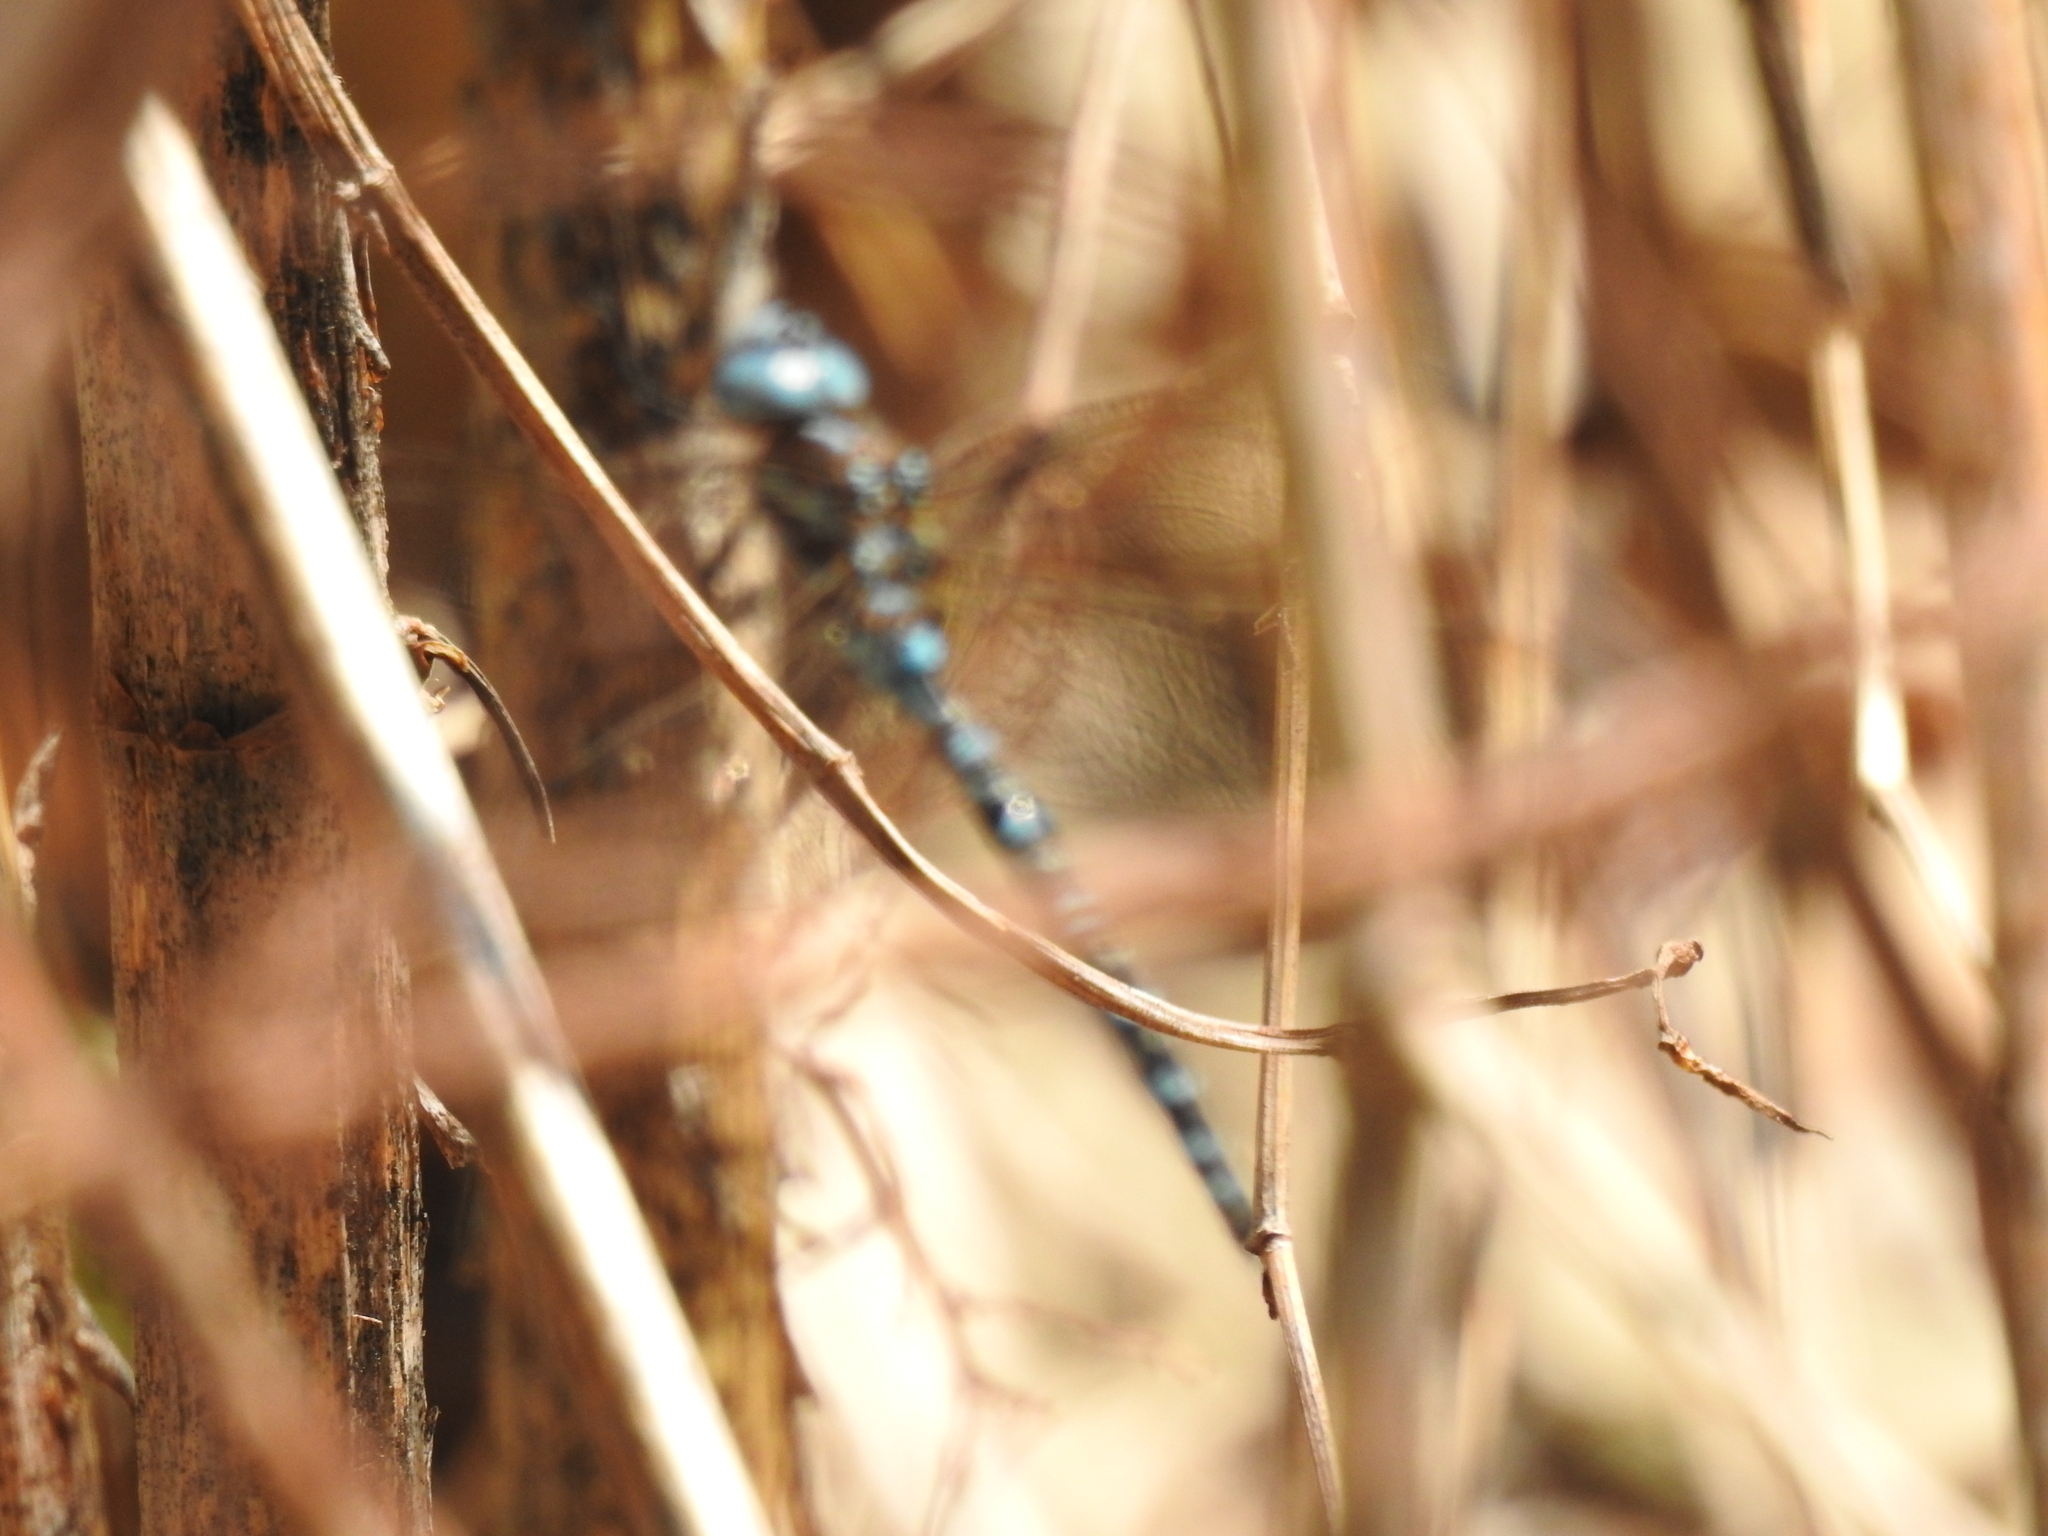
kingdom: Animalia
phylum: Arthropoda
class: Insecta
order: Odonata
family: Aeshnidae
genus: Rhionaeschna
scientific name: Rhionaeschna mutata
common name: Spatterdock darner
